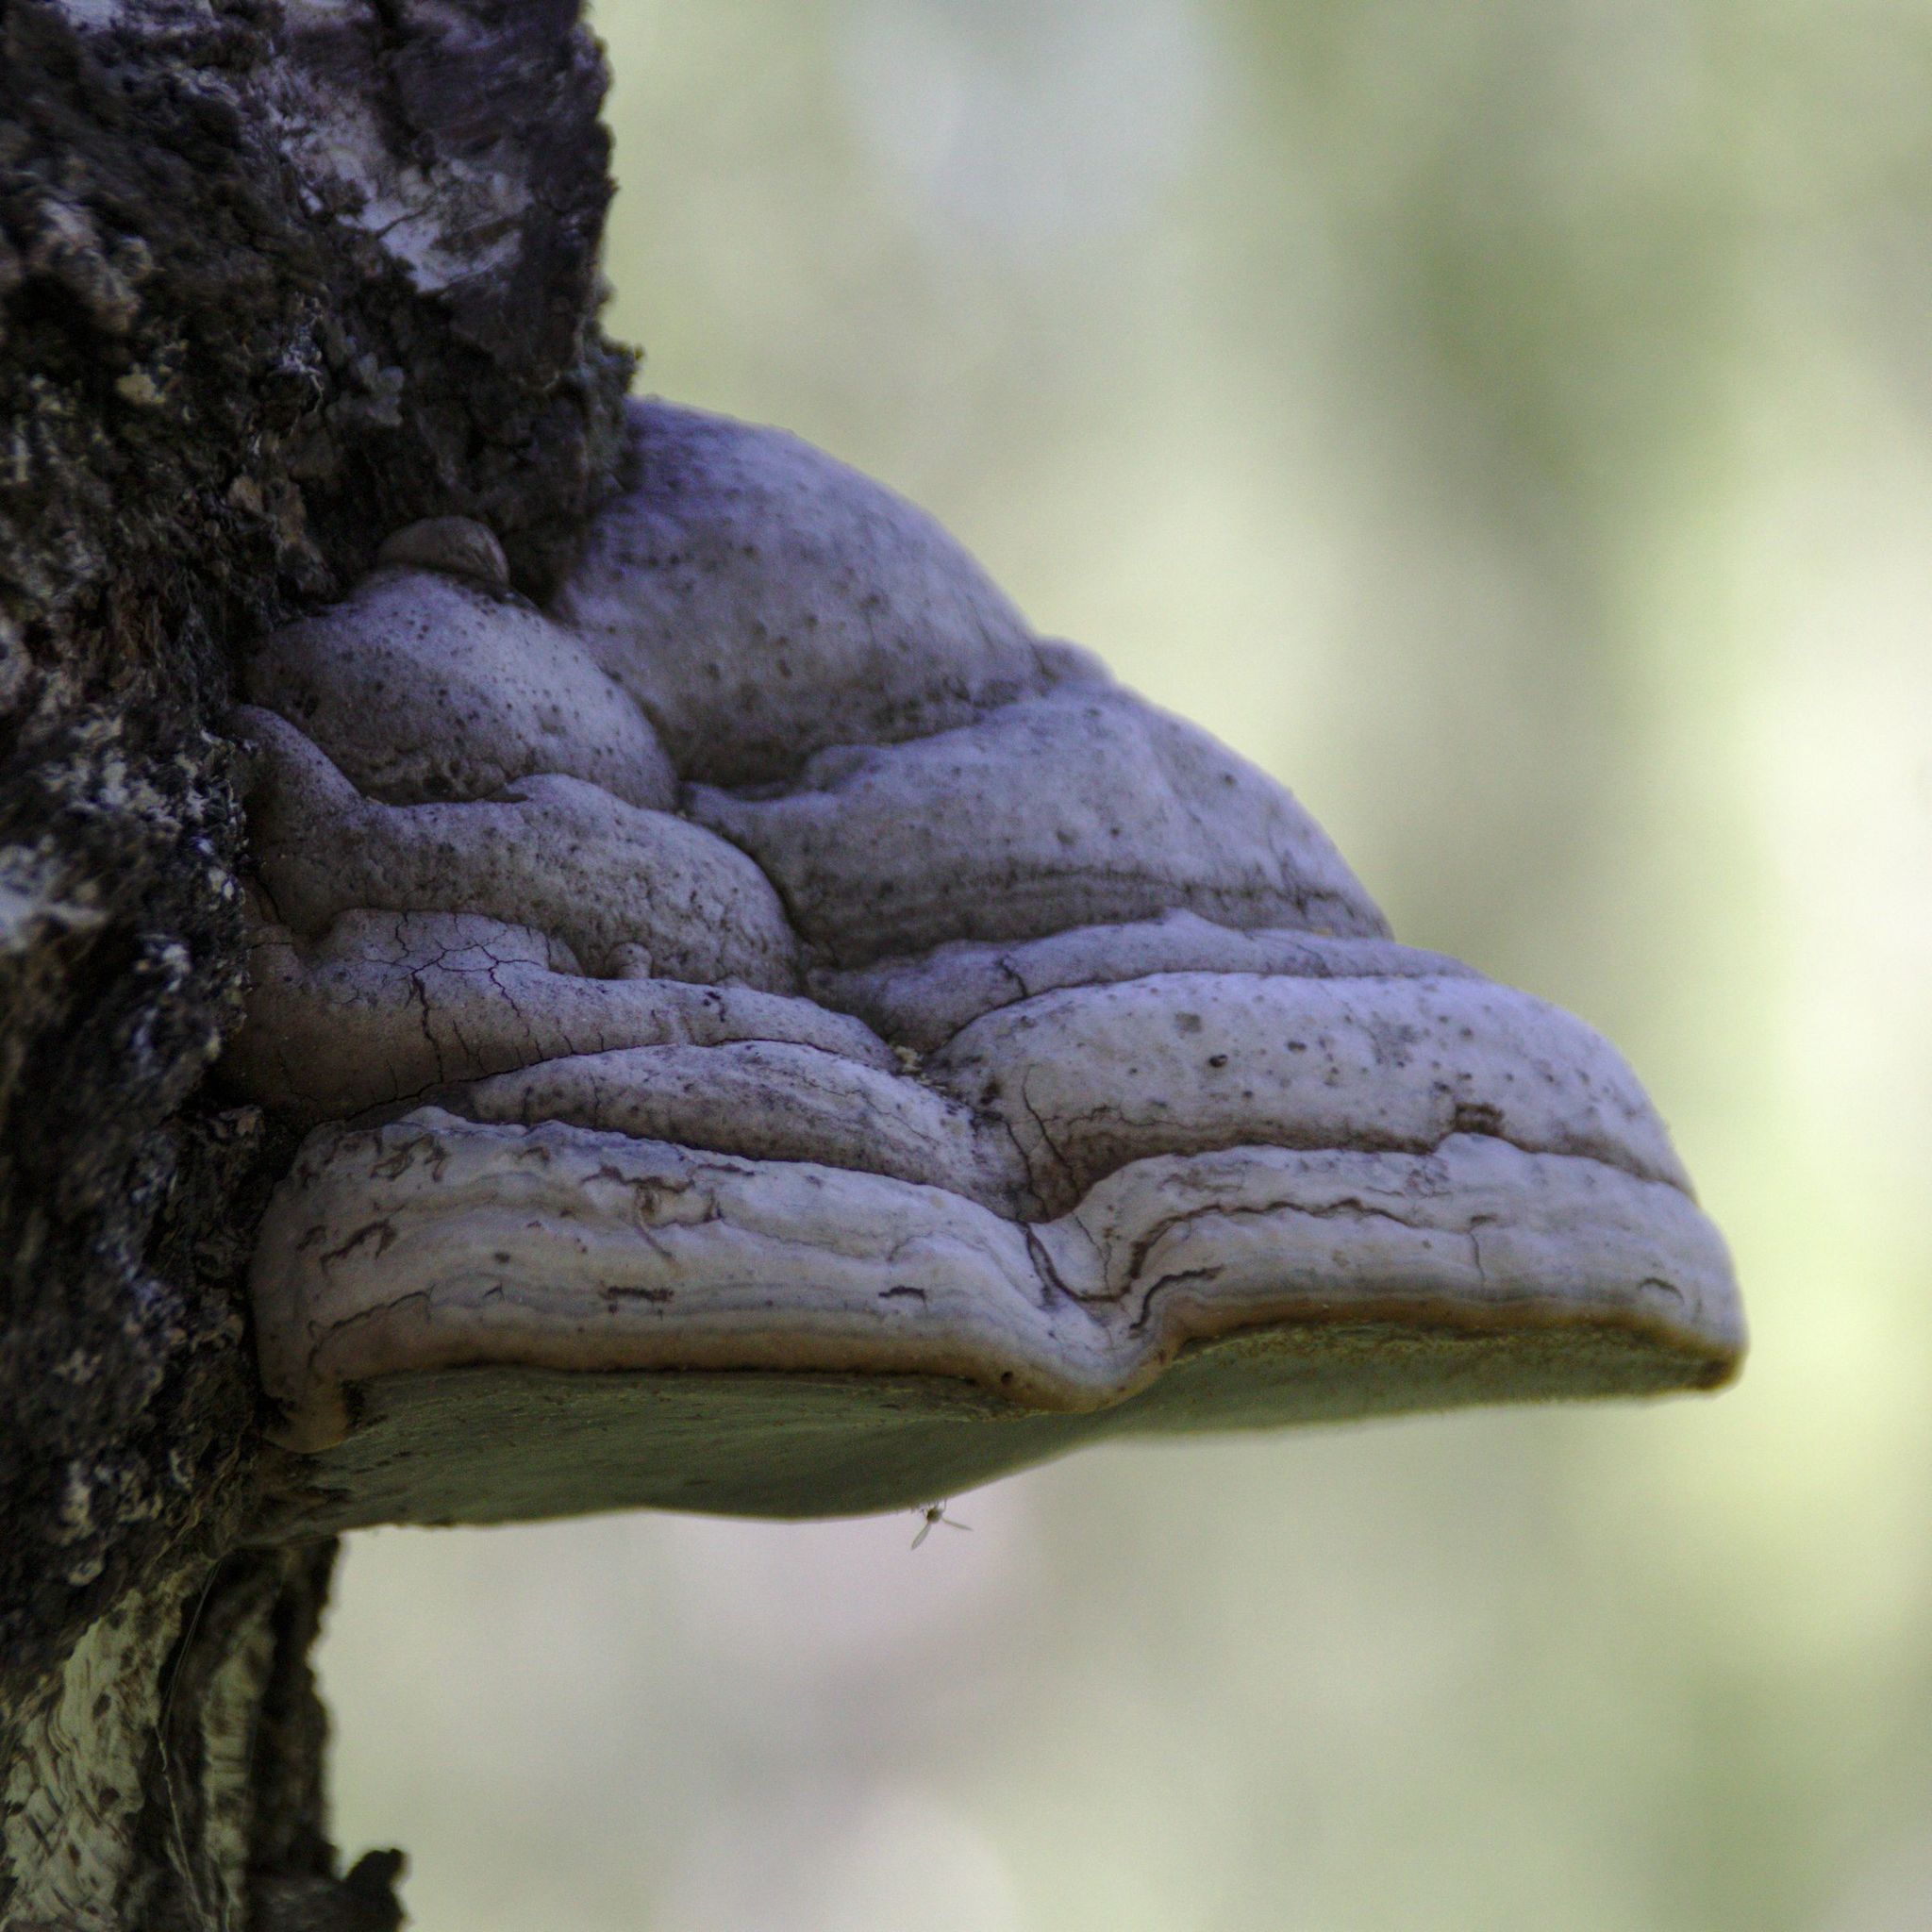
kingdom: Fungi
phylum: Basidiomycota
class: Agaricomycetes
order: Polyporales
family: Polyporaceae
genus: Fomes
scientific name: Fomes fomentarius
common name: Hoof fungus
